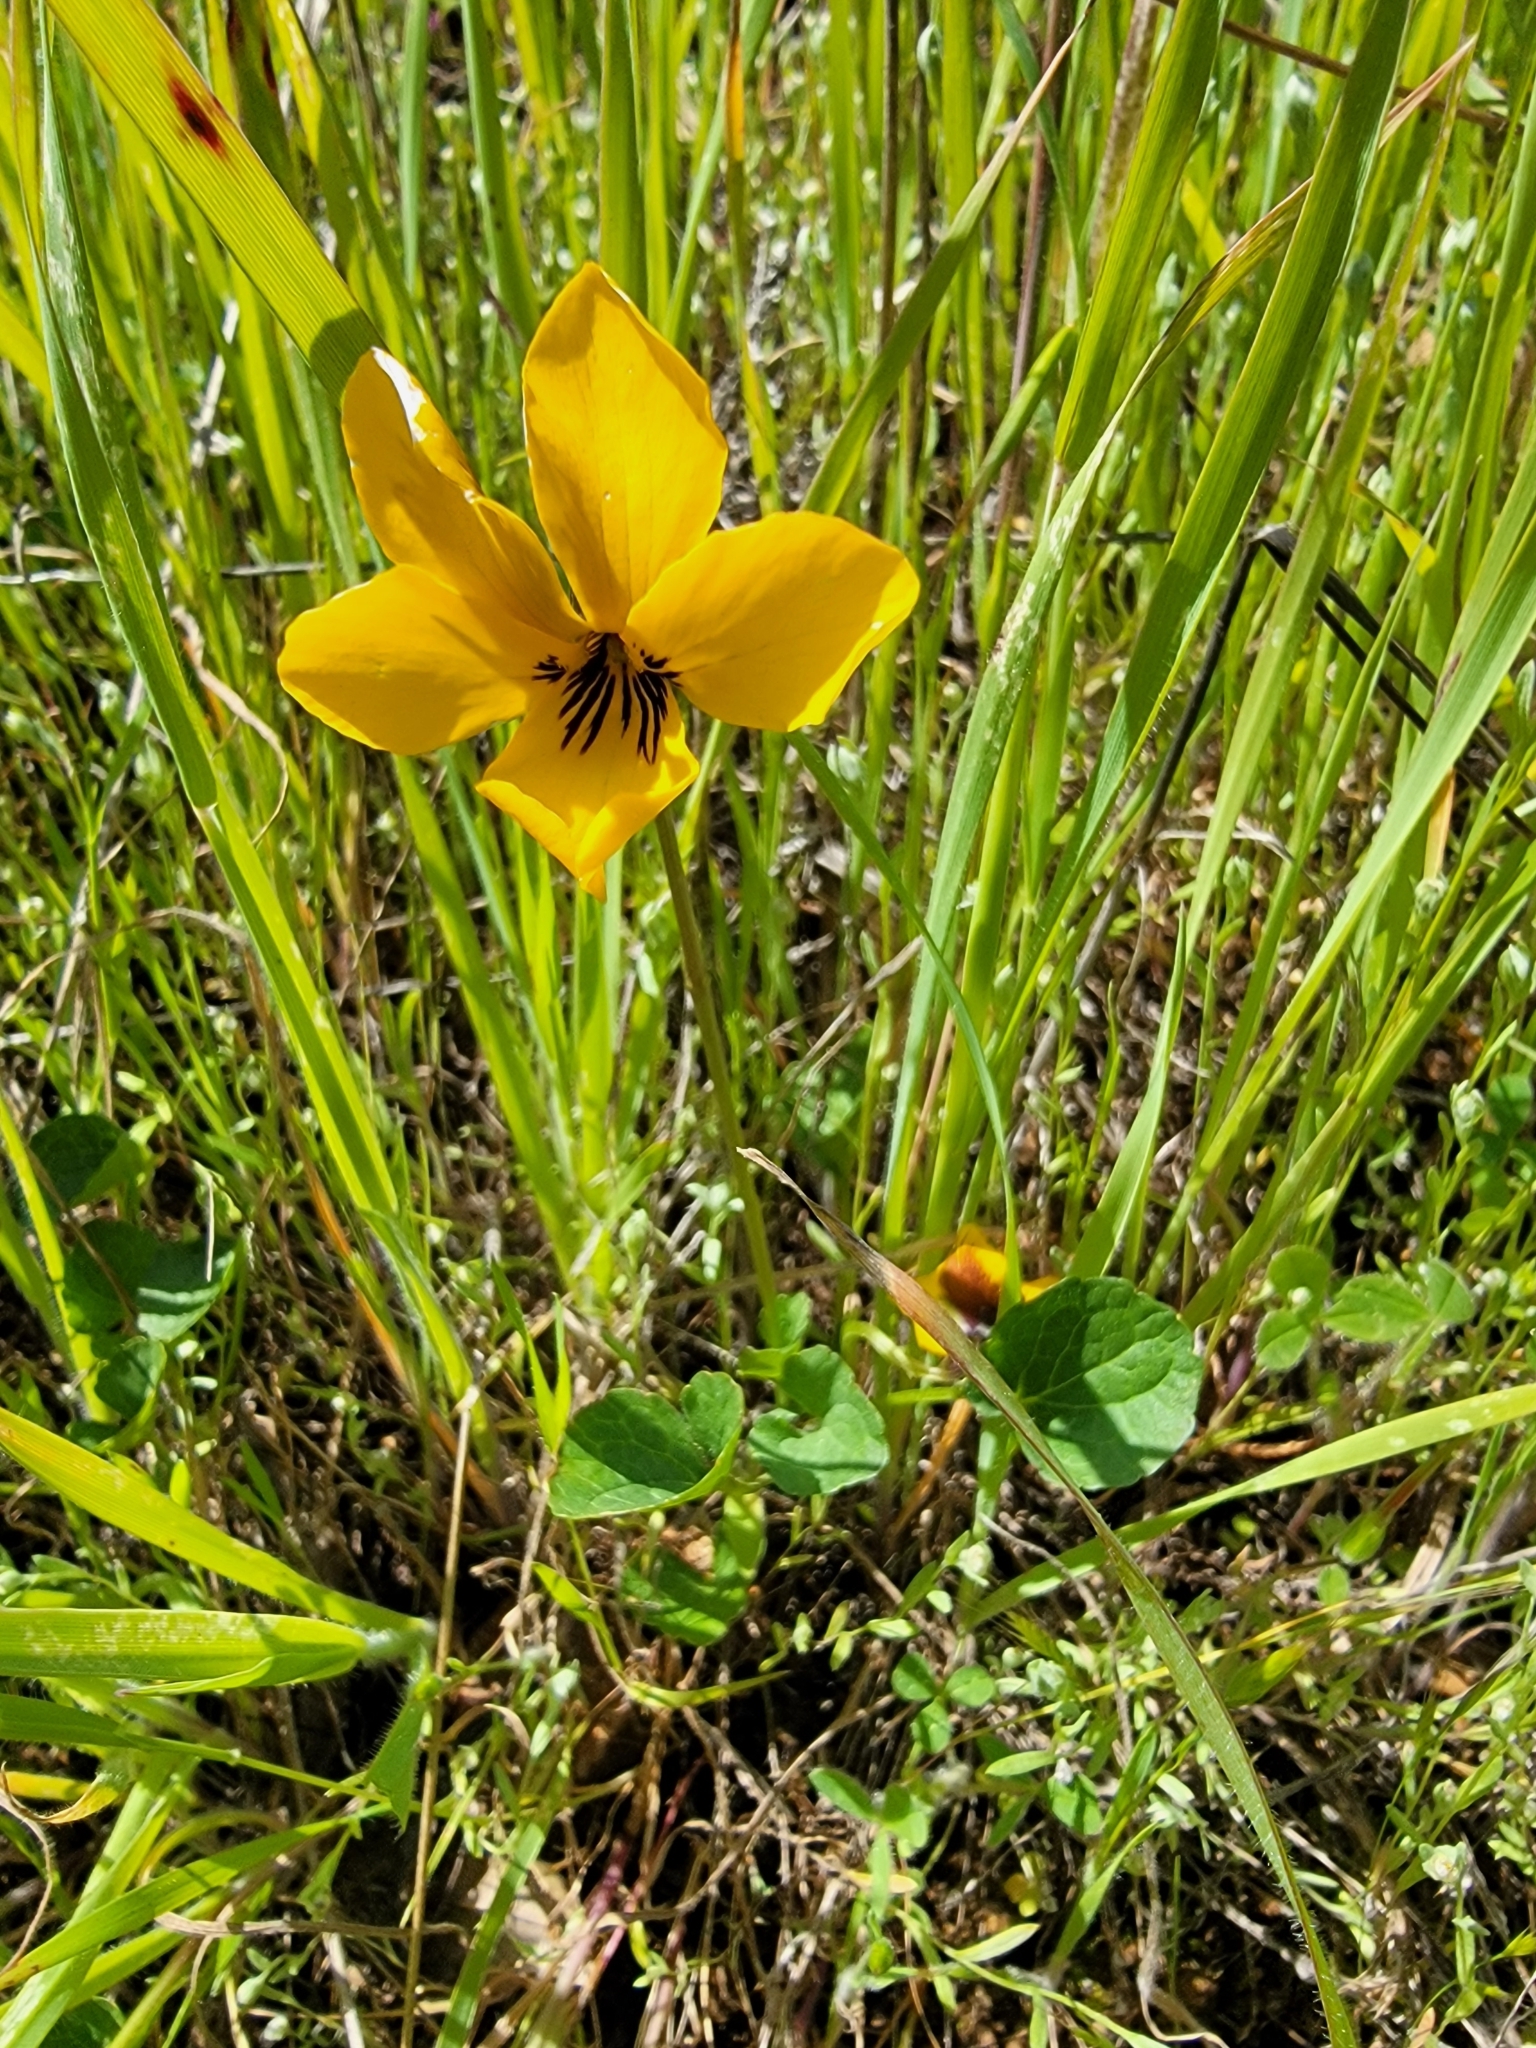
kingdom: Plantae
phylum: Tracheophyta
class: Magnoliopsida
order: Malpighiales
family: Violaceae
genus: Viola
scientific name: Viola pedunculata
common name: California golden violet
